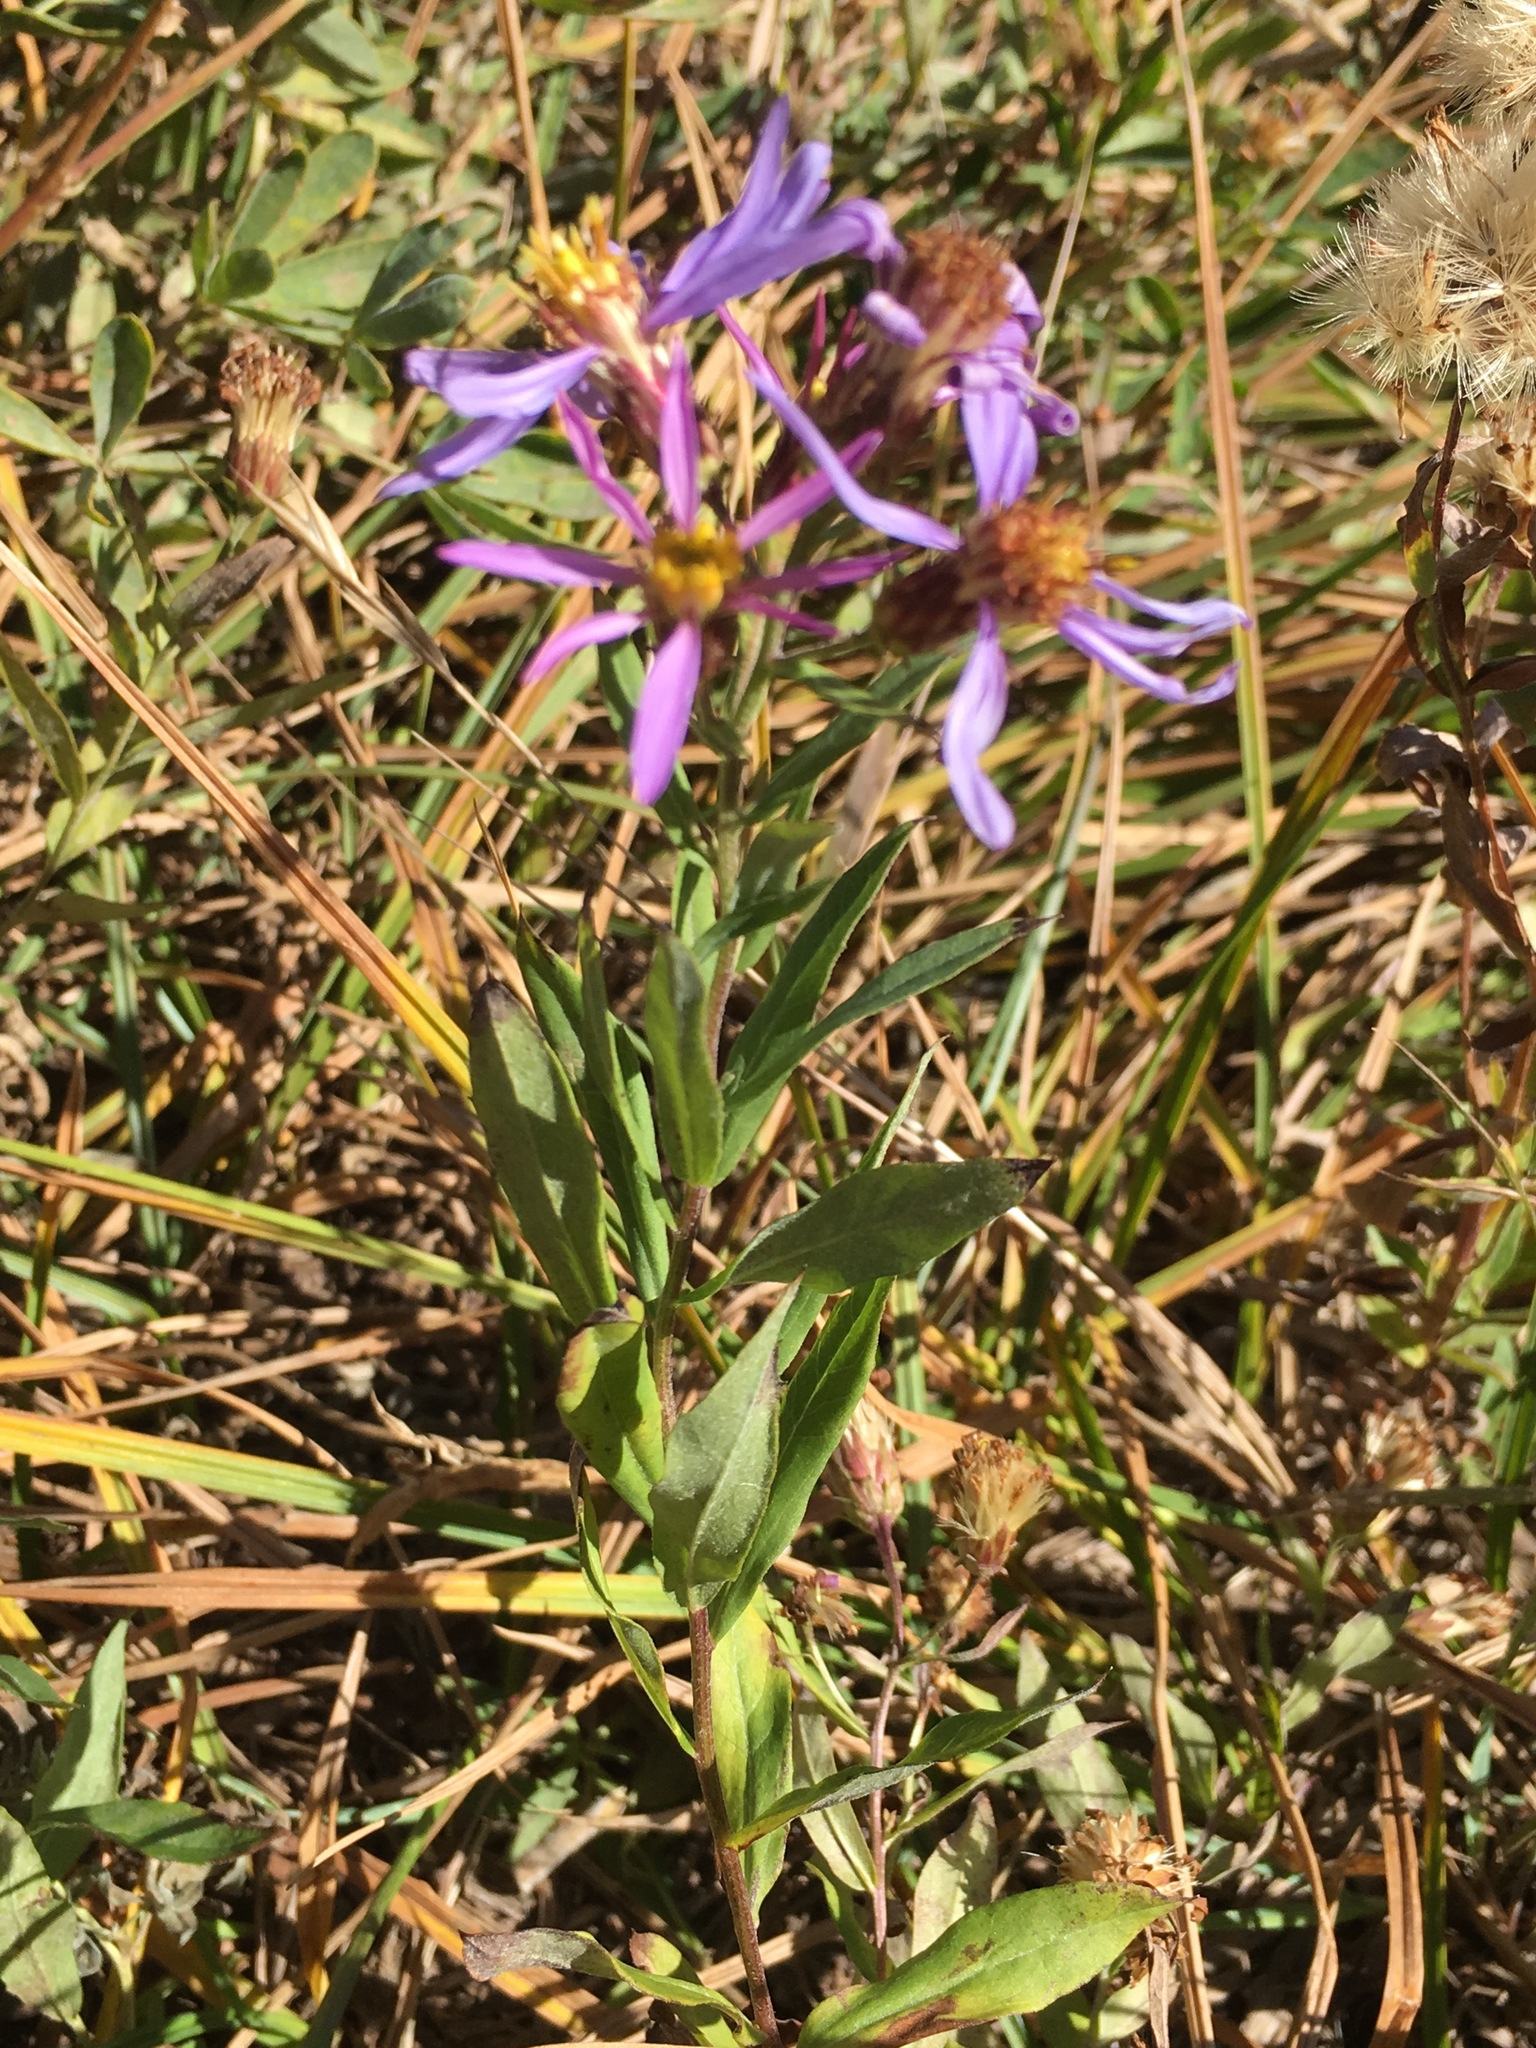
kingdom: Plantae
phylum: Tracheophyta
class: Magnoliopsida
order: Asterales
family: Asteraceae
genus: Eucephalus
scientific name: Eucephalus ledophyllus
